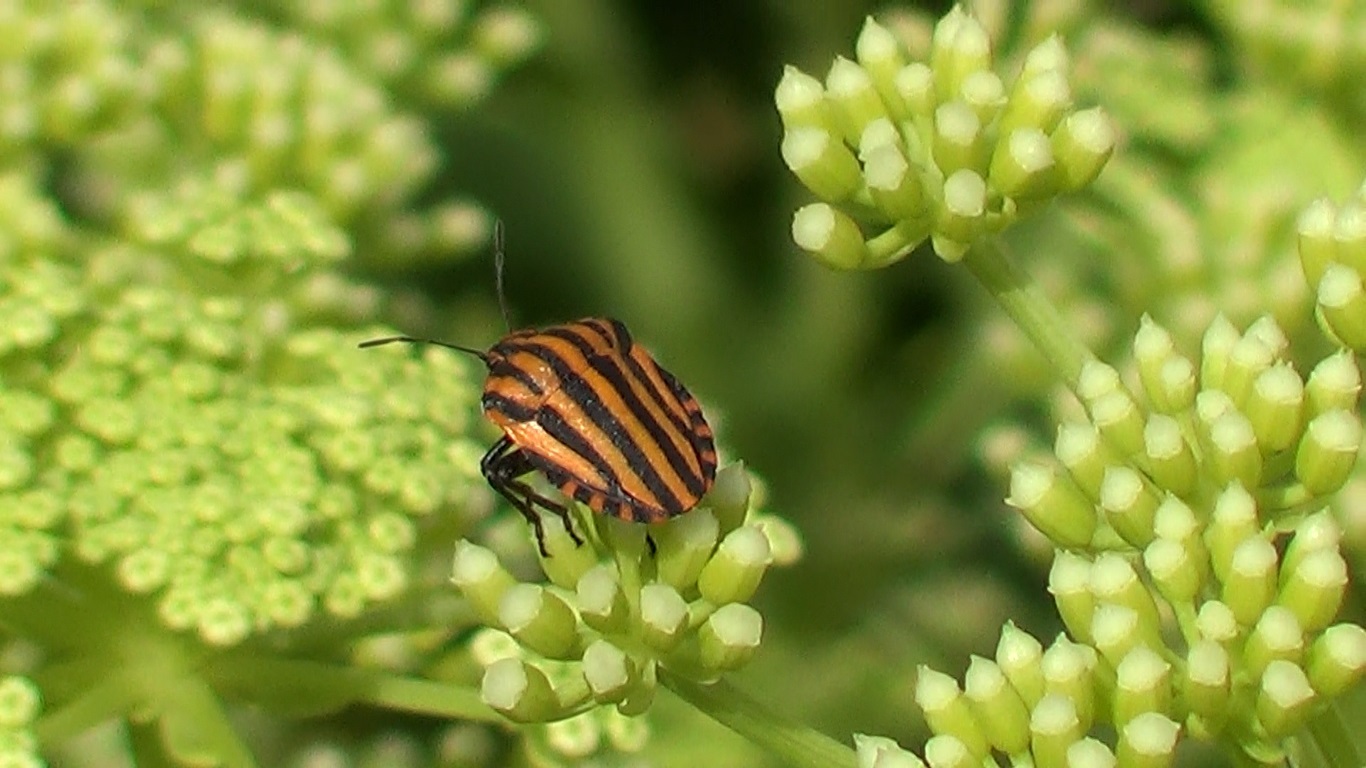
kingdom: Animalia
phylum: Arthropoda
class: Insecta
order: Hemiptera
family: Pentatomidae
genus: Graphosoma
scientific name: Graphosoma lineatum
